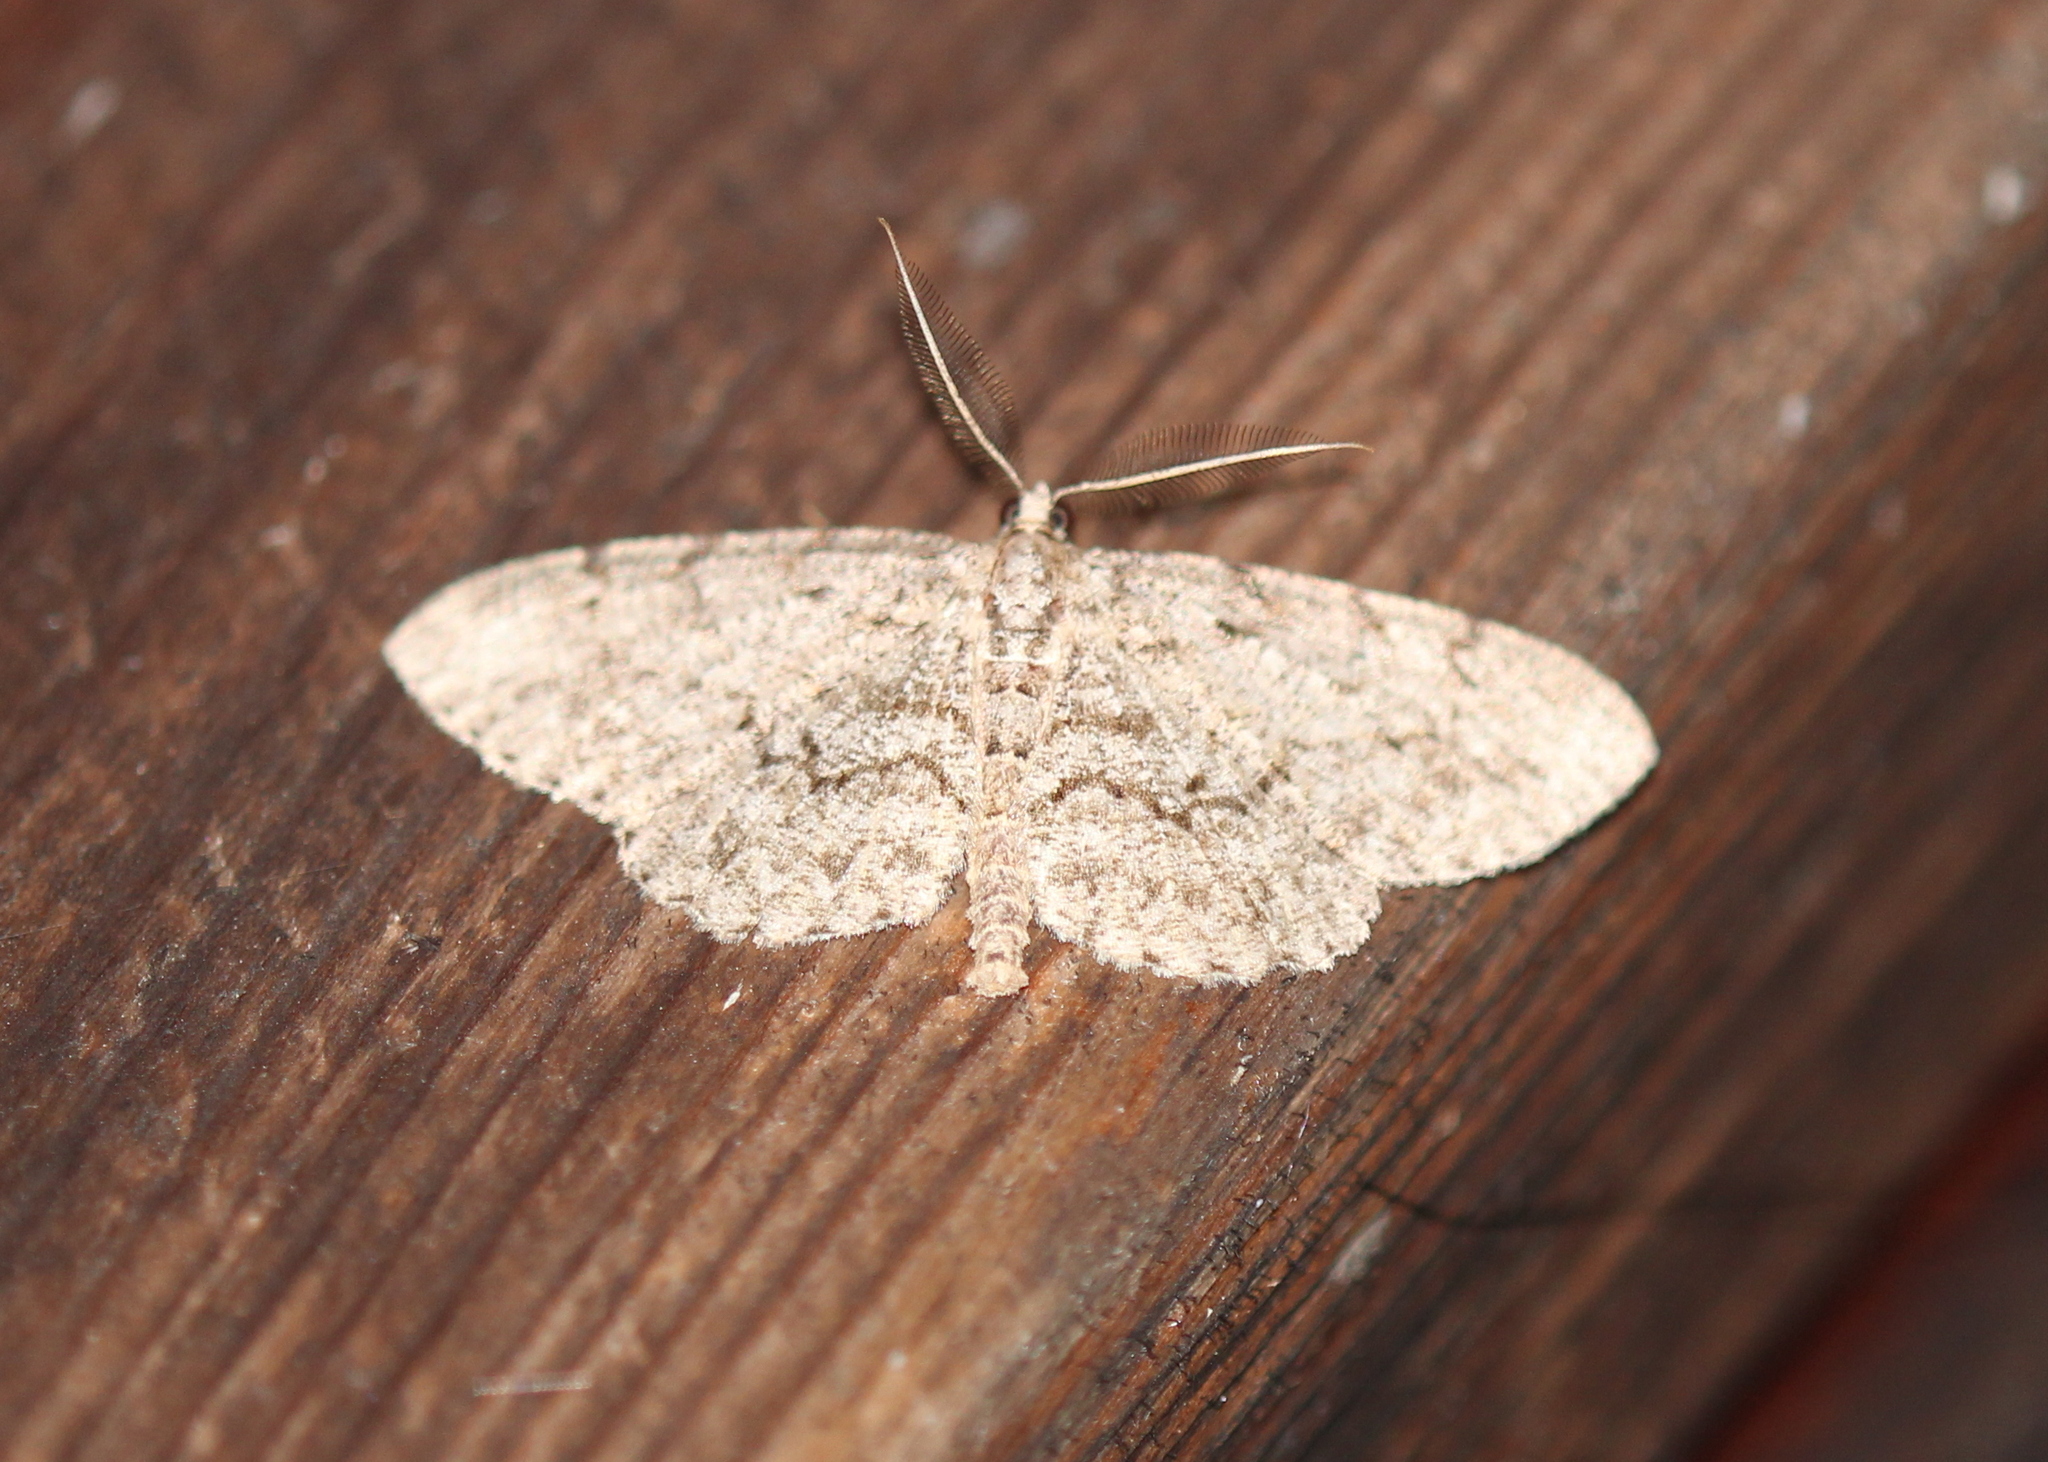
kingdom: Animalia
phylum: Arthropoda
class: Insecta
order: Lepidoptera
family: Geometridae
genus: Protoboarmia
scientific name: Protoboarmia porcelaria
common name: Porcelain gray
